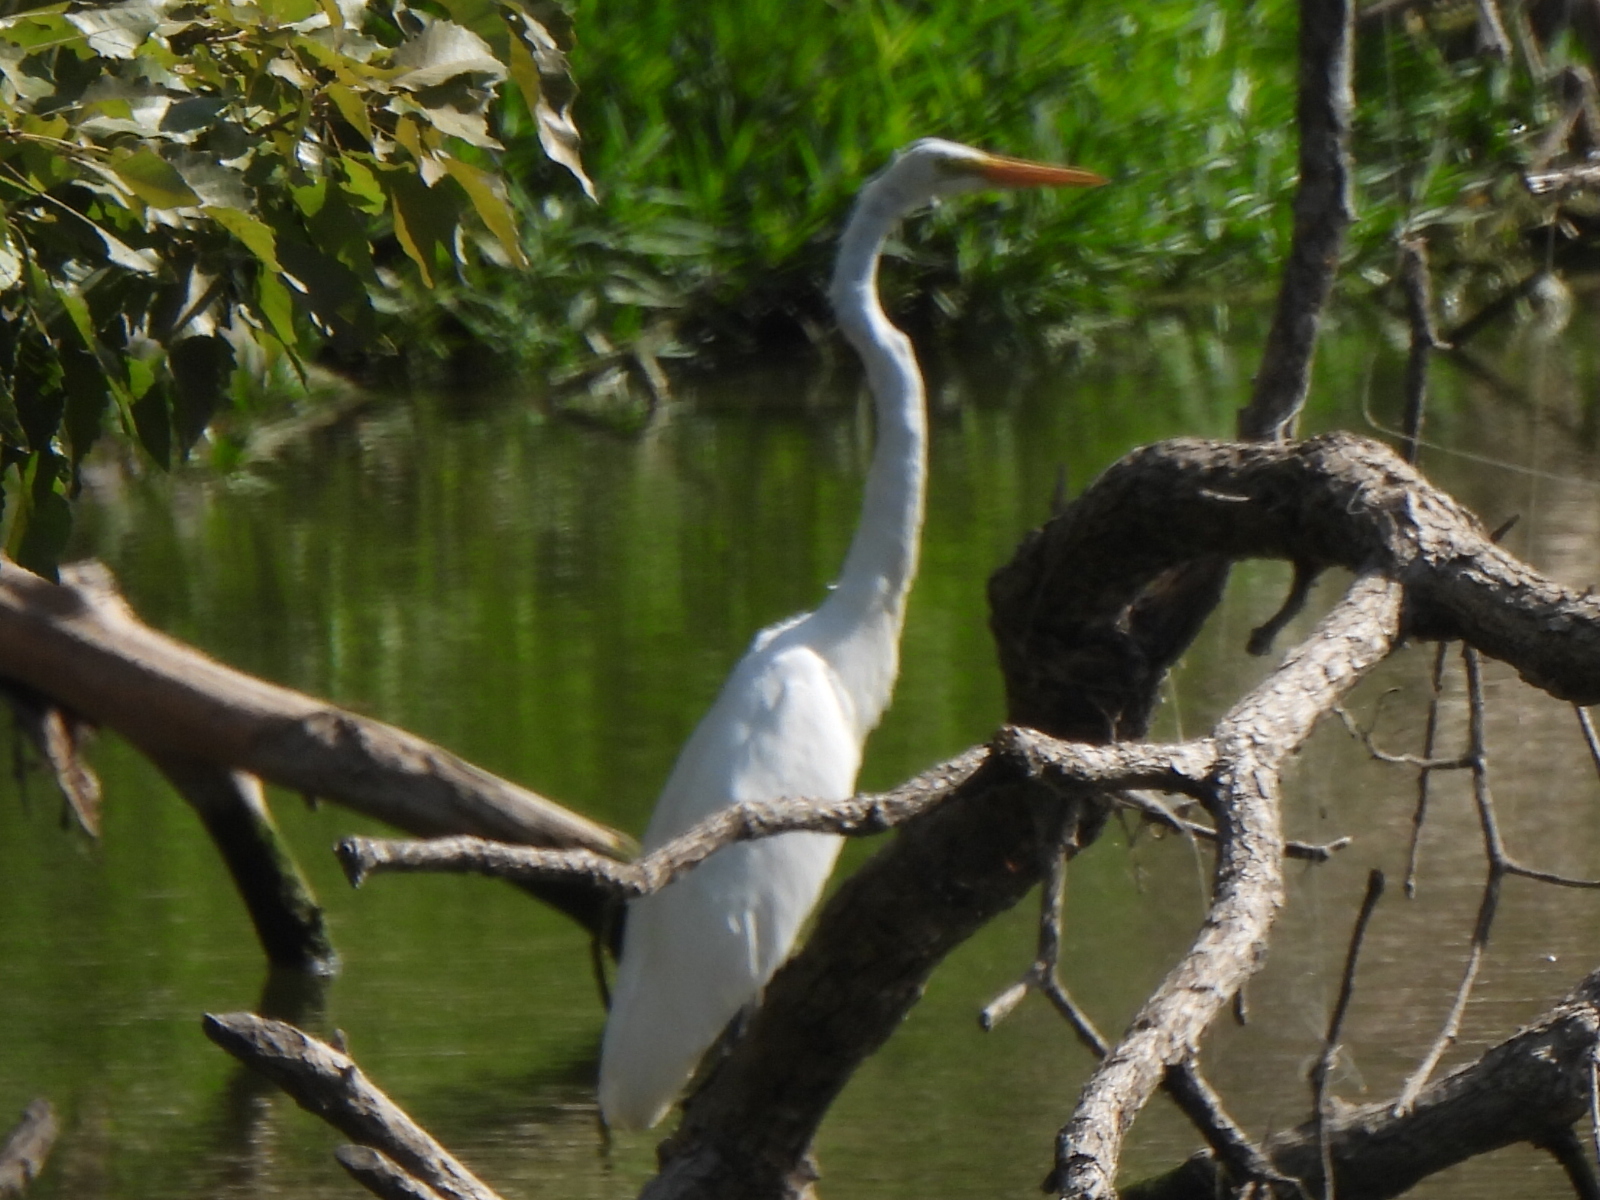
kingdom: Animalia
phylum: Chordata
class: Aves
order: Pelecaniformes
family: Ardeidae
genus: Ardea
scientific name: Ardea alba
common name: Great egret
